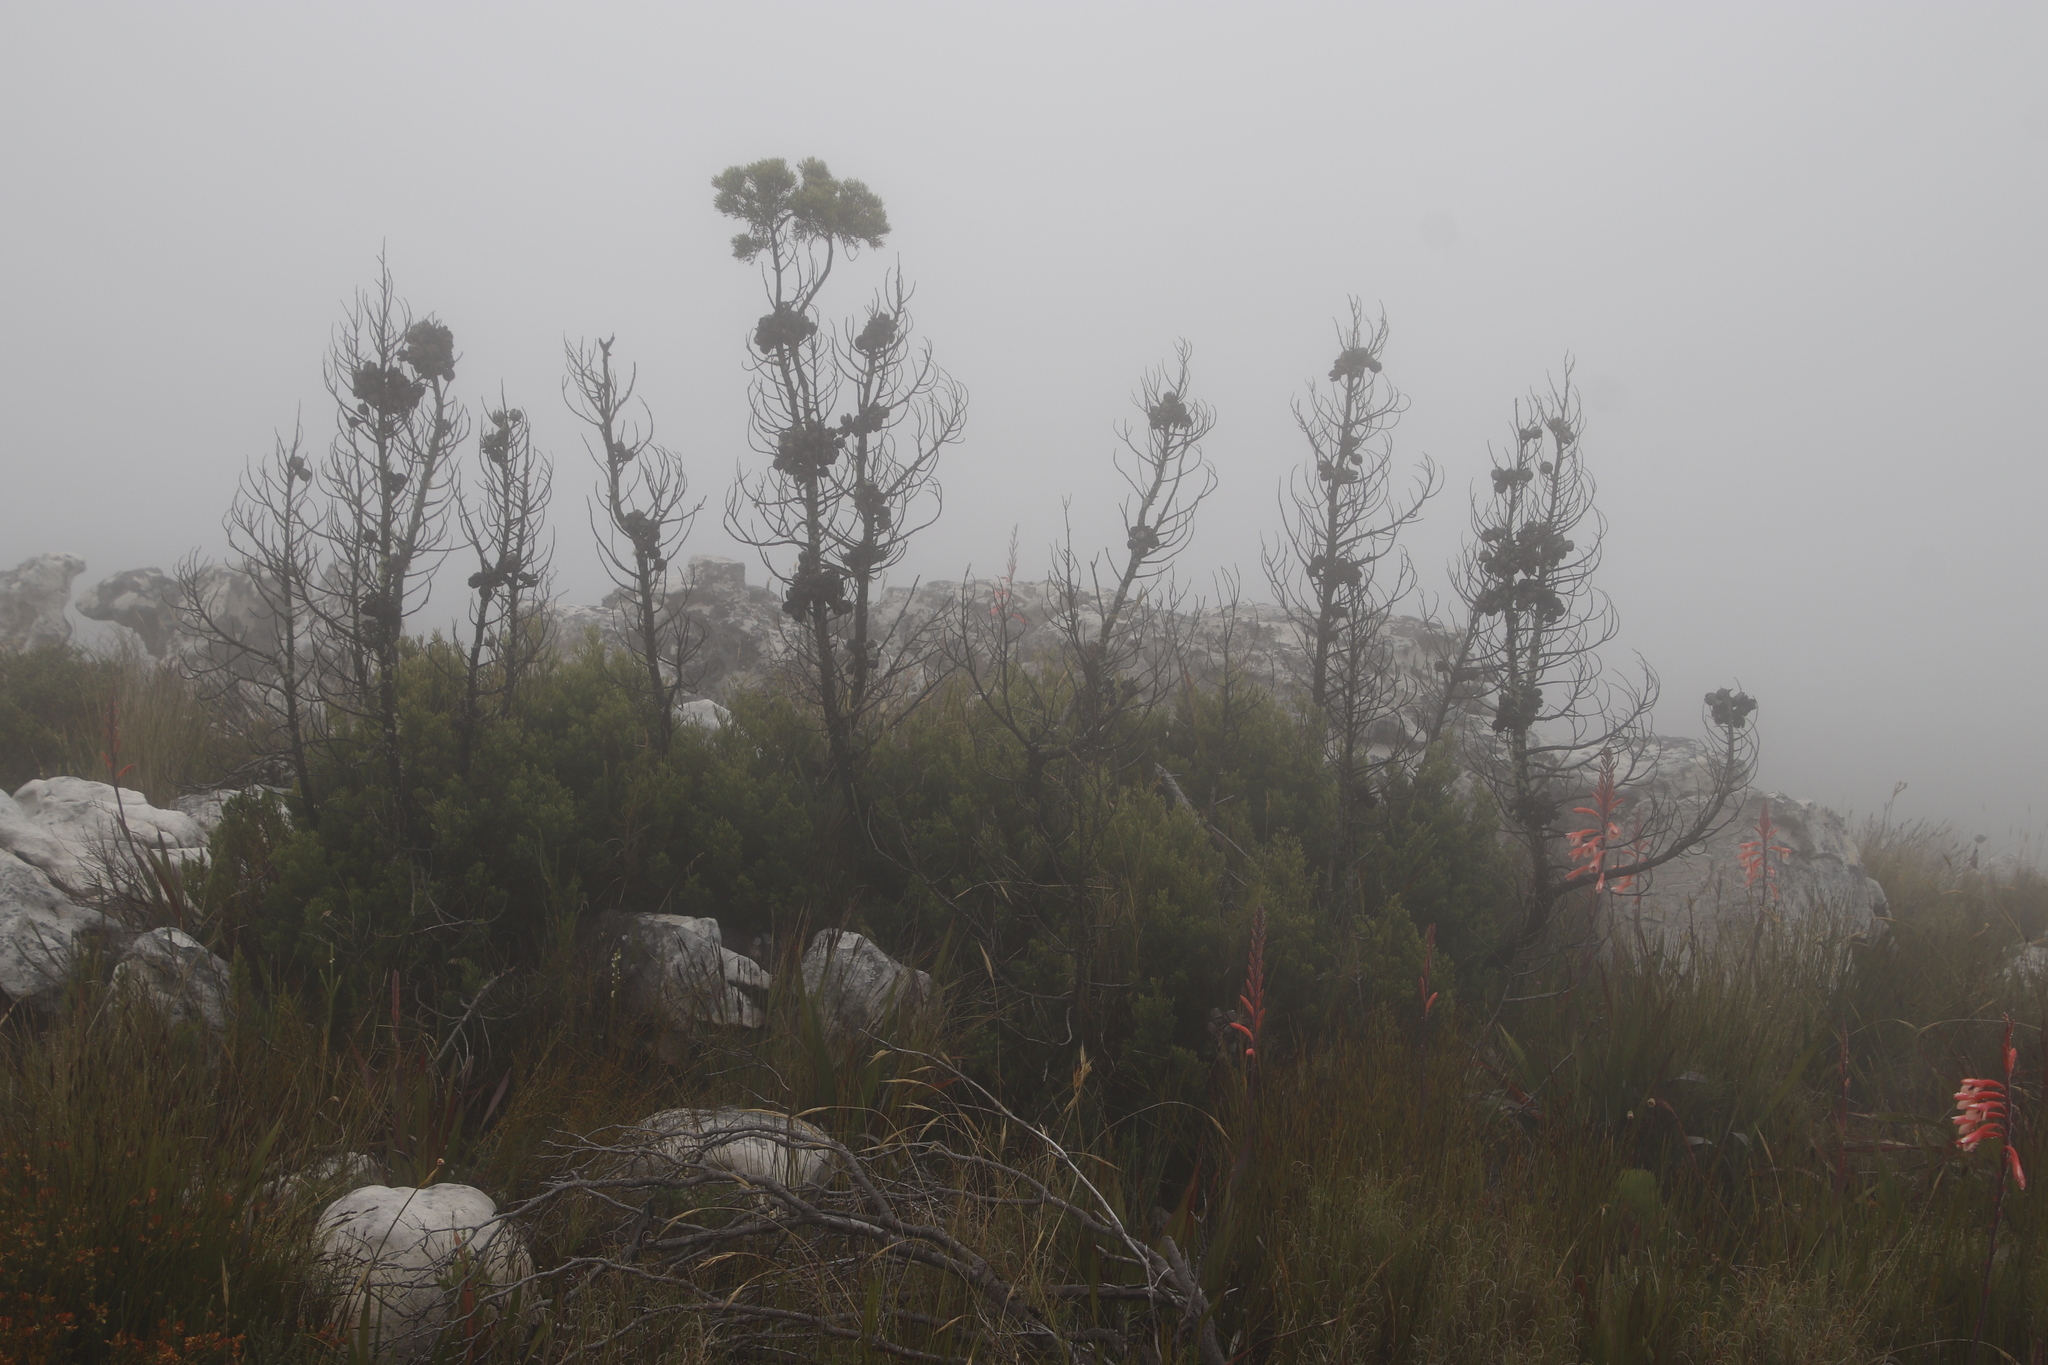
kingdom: Plantae
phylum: Tracheophyta
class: Pinopsida
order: Pinales
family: Cupressaceae
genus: Widdringtonia
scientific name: Widdringtonia nodiflora
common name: Cape cypress
